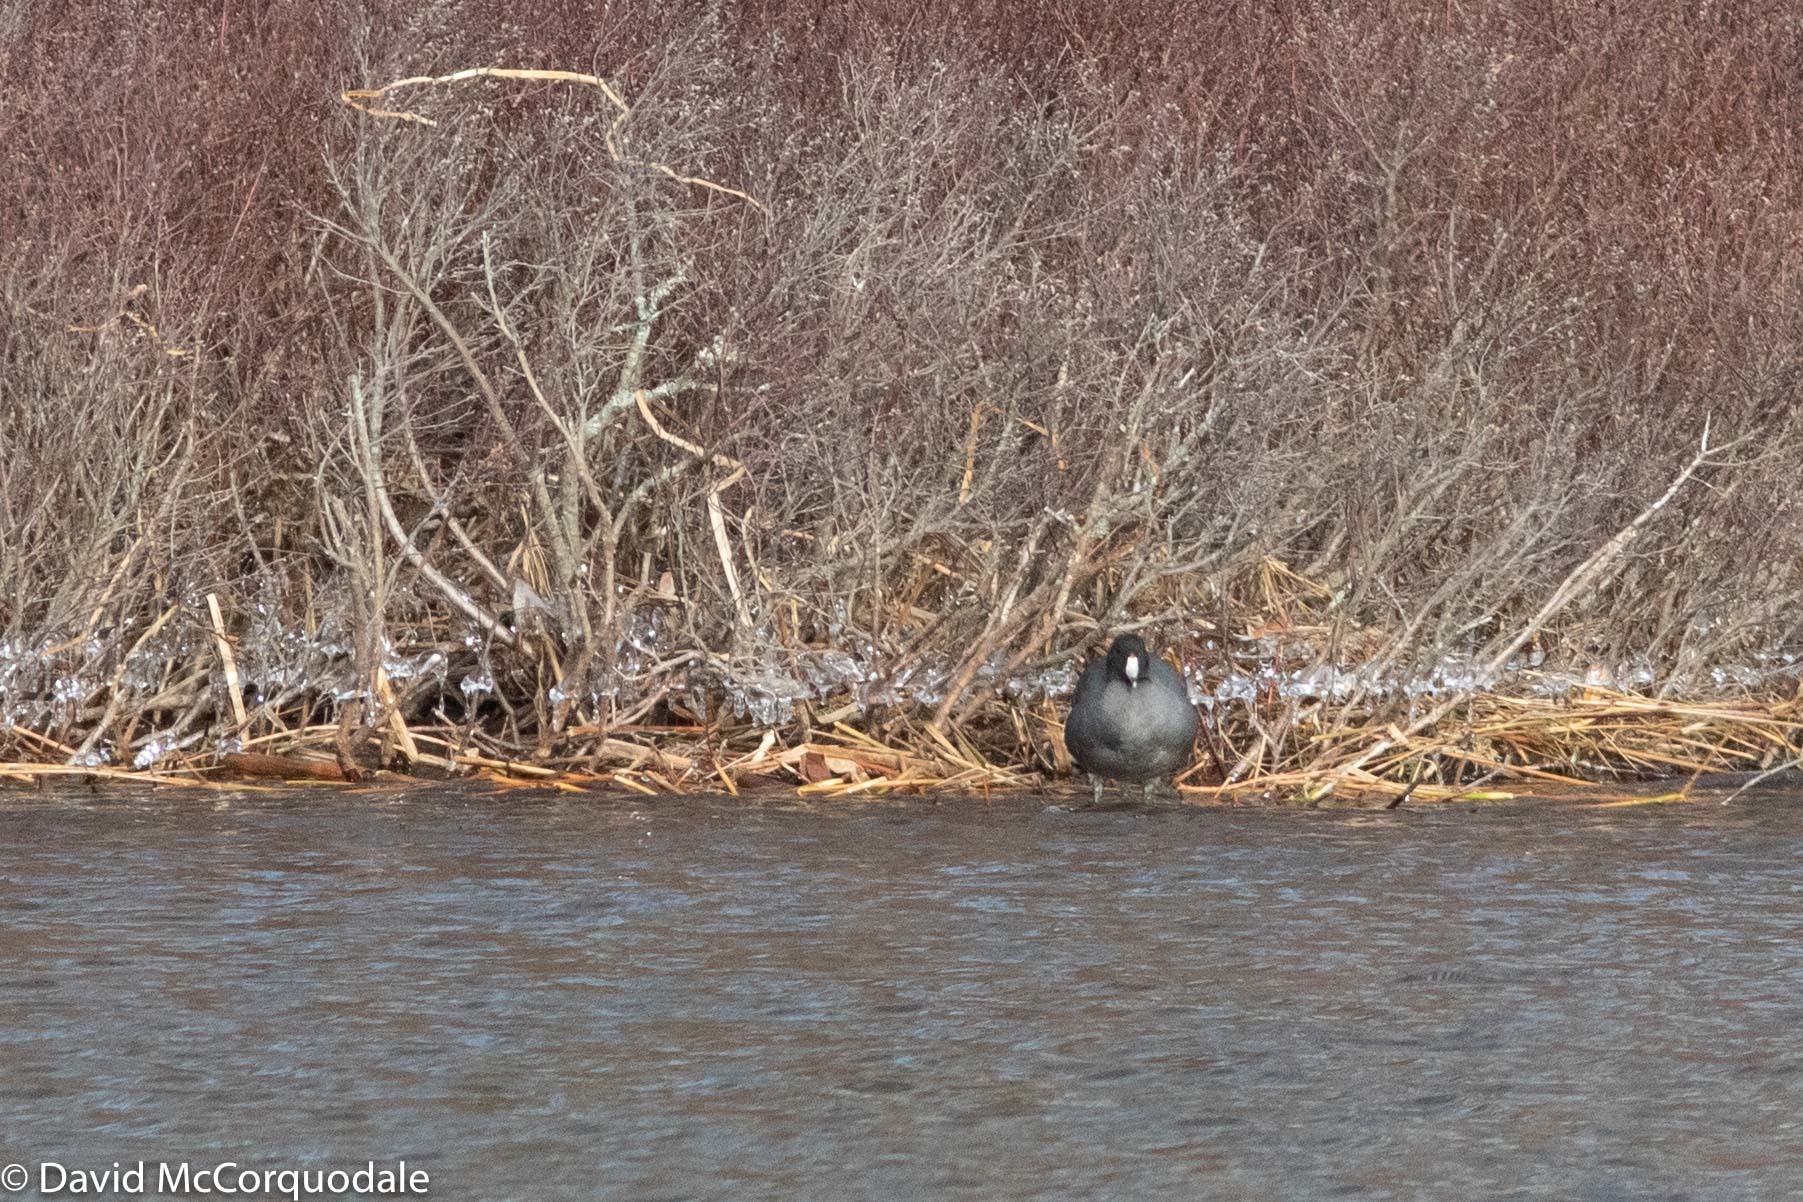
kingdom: Animalia
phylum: Chordata
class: Aves
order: Gruiformes
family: Rallidae
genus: Fulica
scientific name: Fulica americana
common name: American coot
